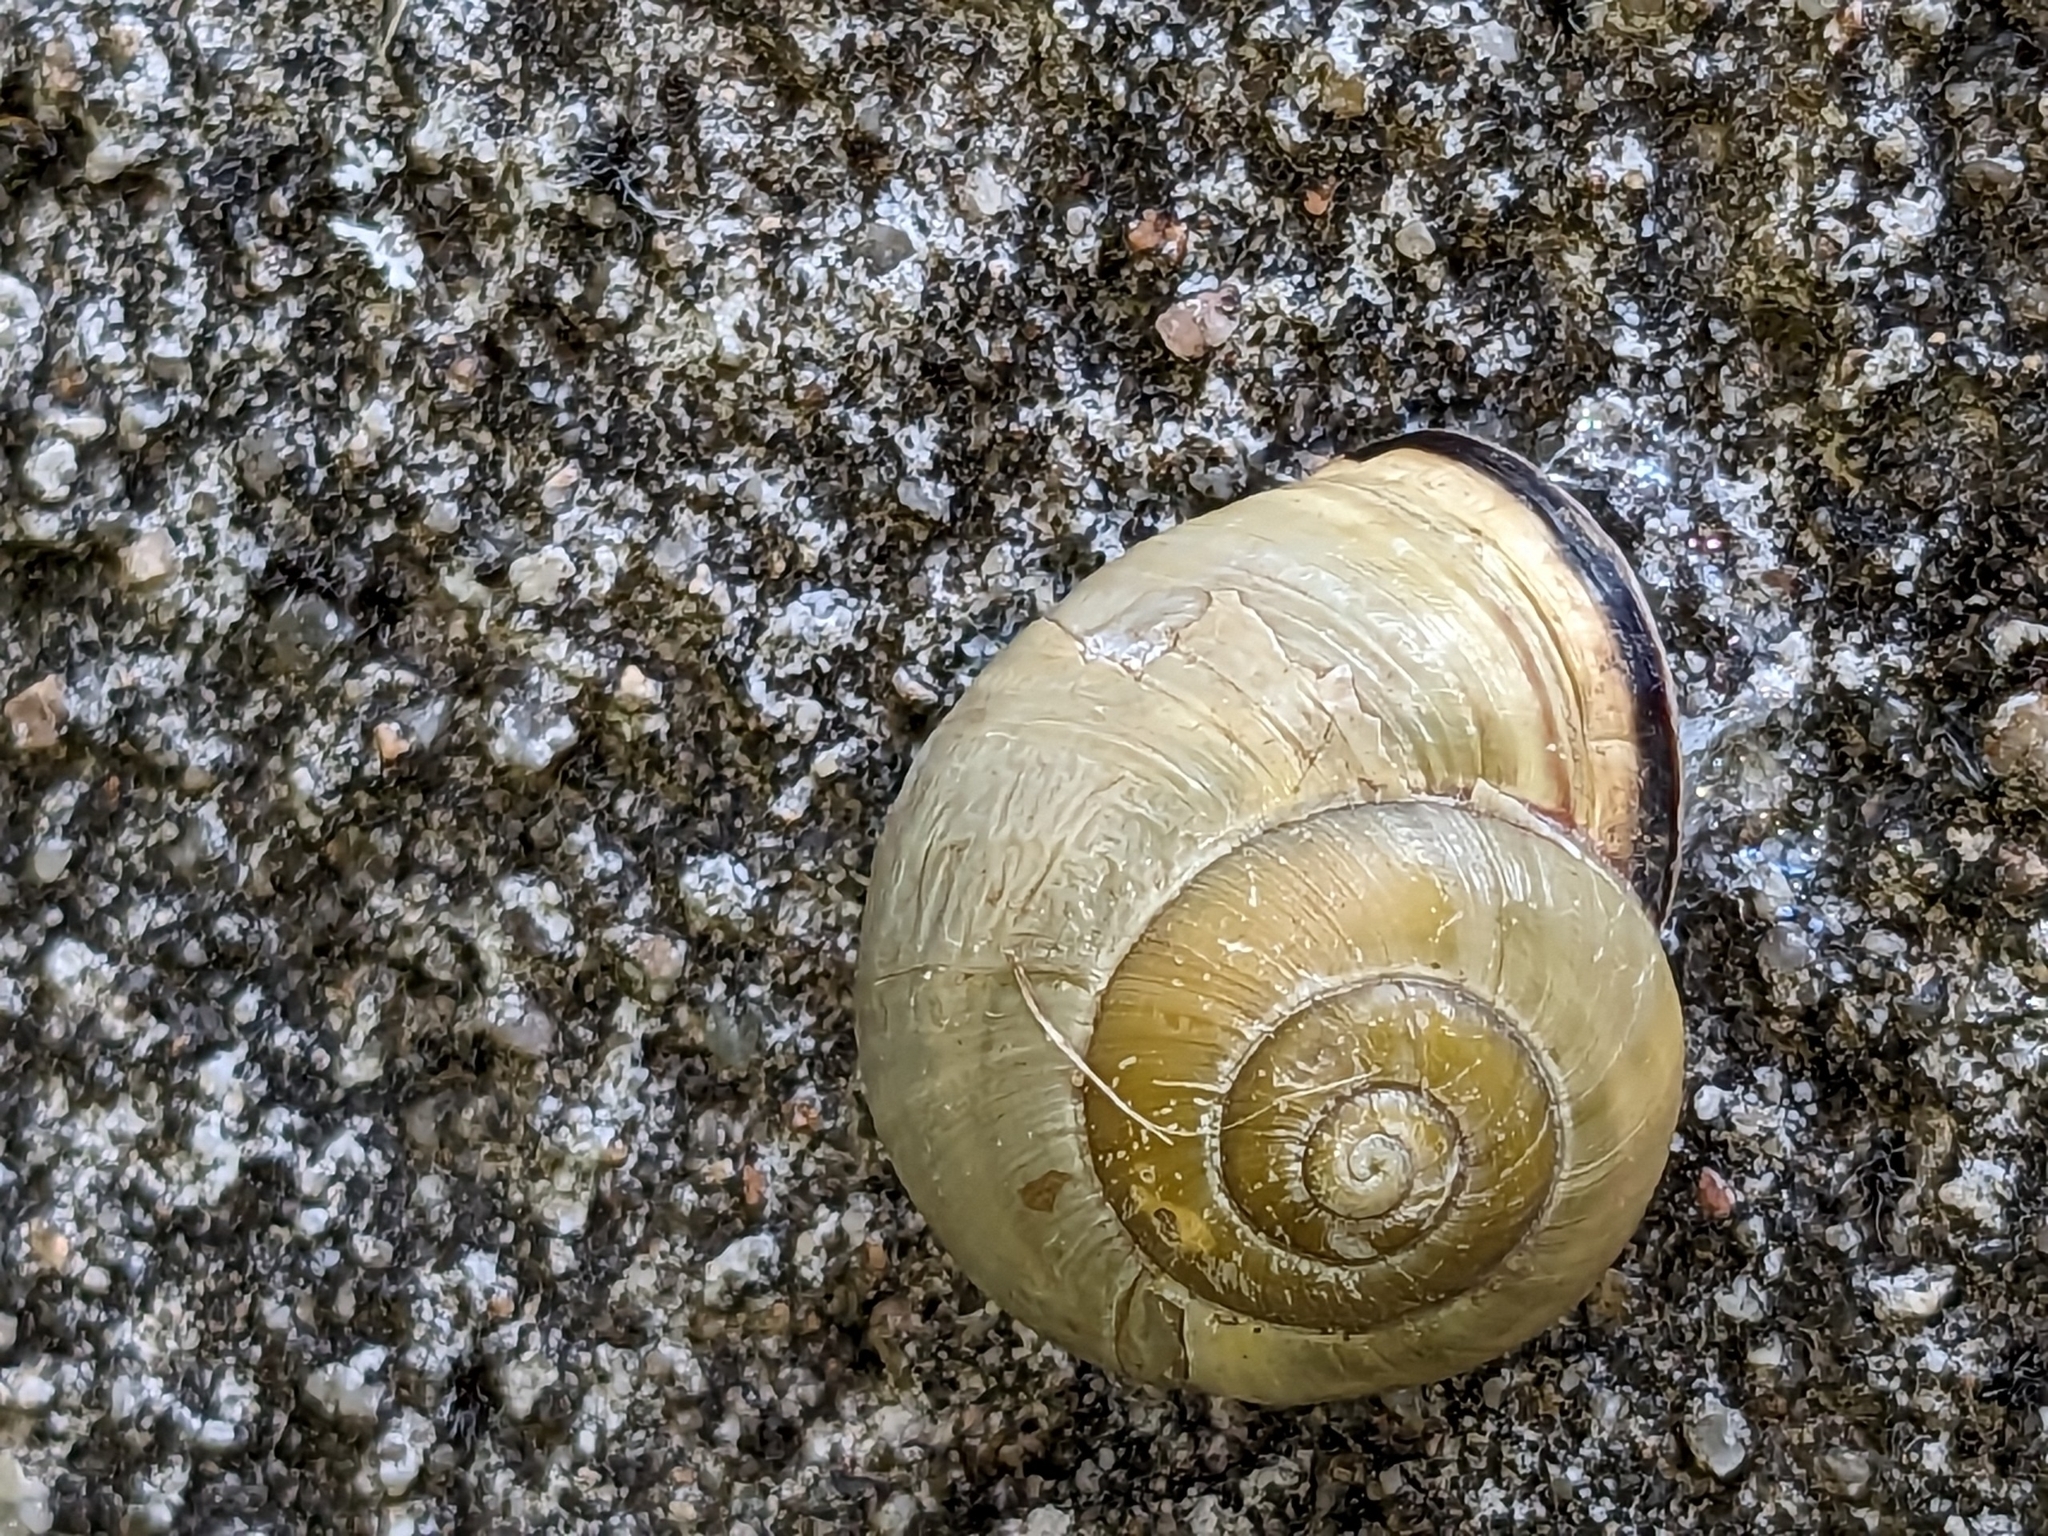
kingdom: Animalia
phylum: Mollusca
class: Gastropoda
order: Stylommatophora
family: Helicidae
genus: Cepaea
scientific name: Cepaea nemoralis
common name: Grovesnail
